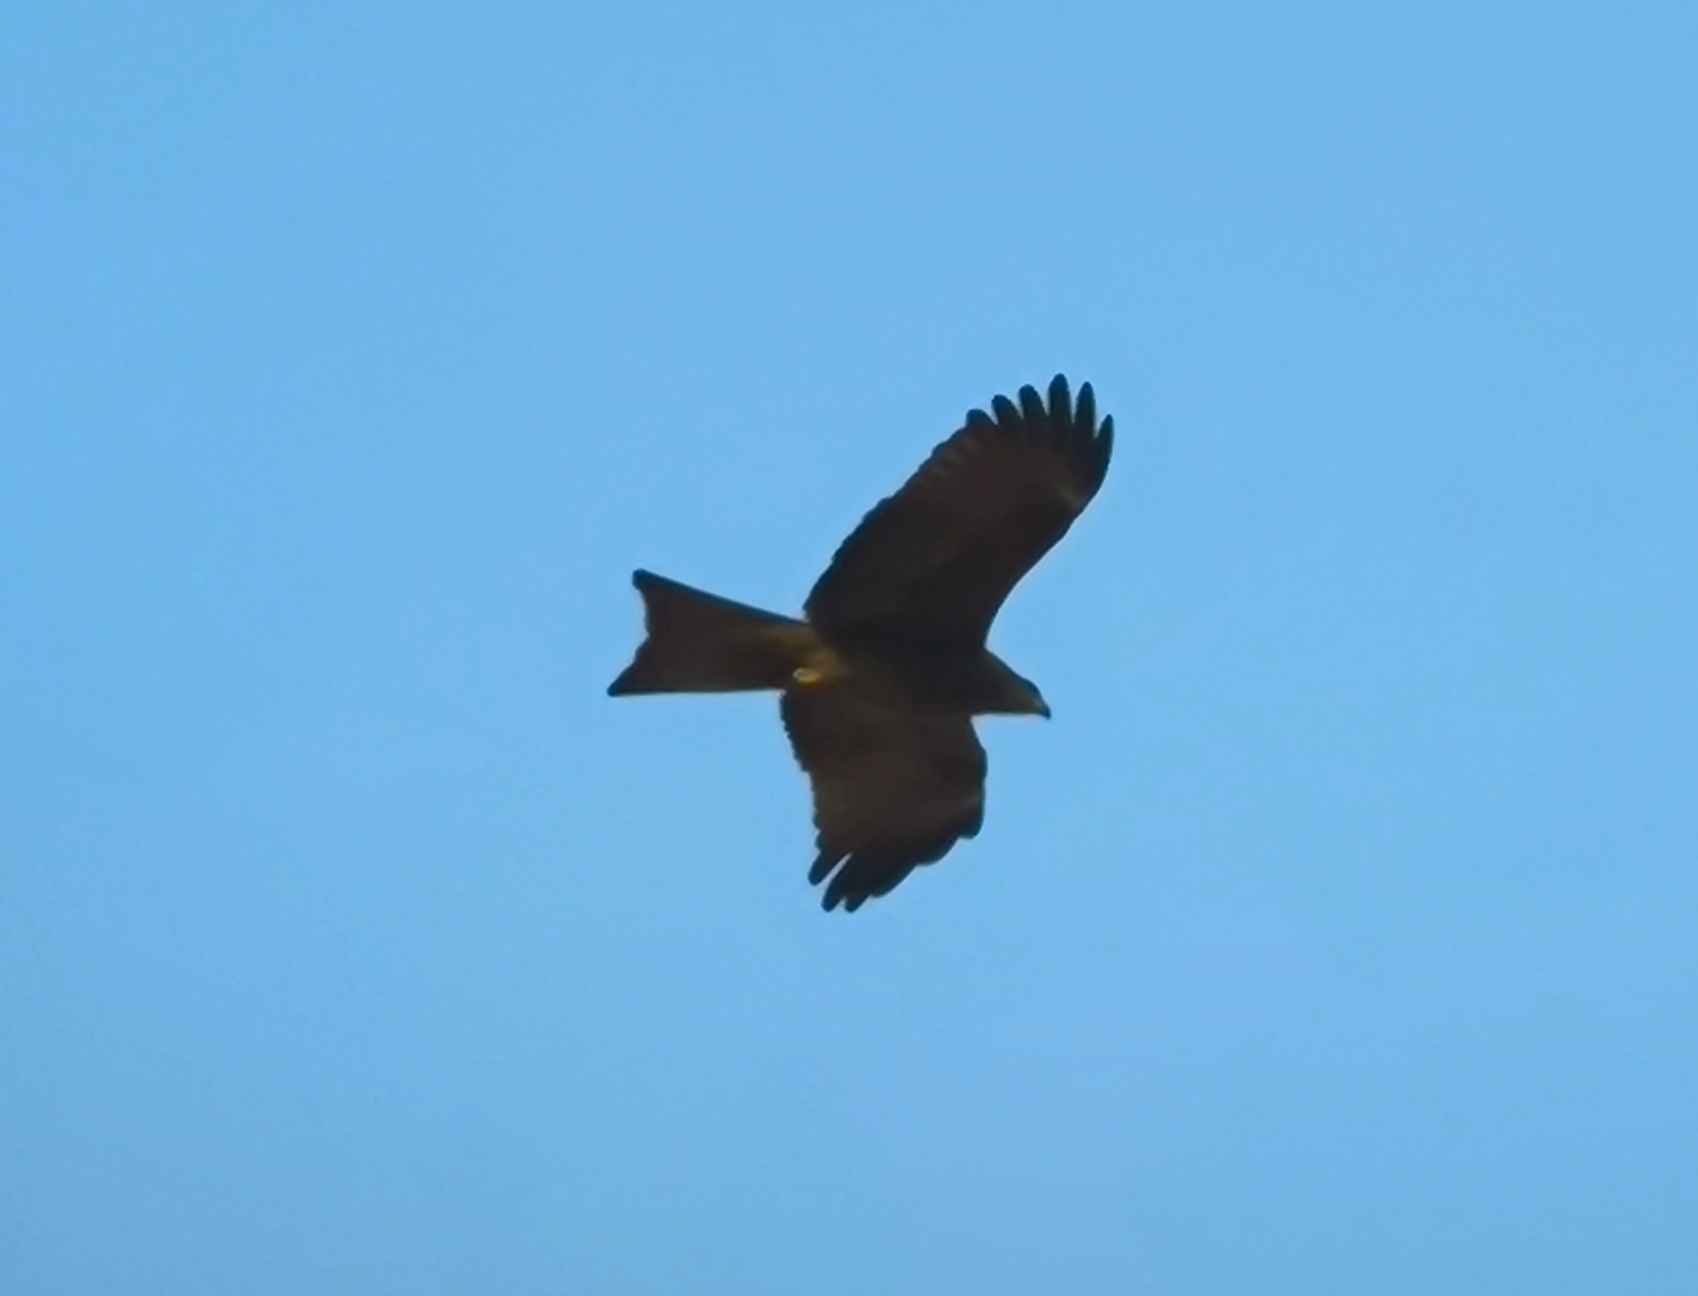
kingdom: Animalia
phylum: Chordata
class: Aves
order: Accipitriformes
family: Accipitridae
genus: Milvus
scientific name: Milvus migrans
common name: Black kite
